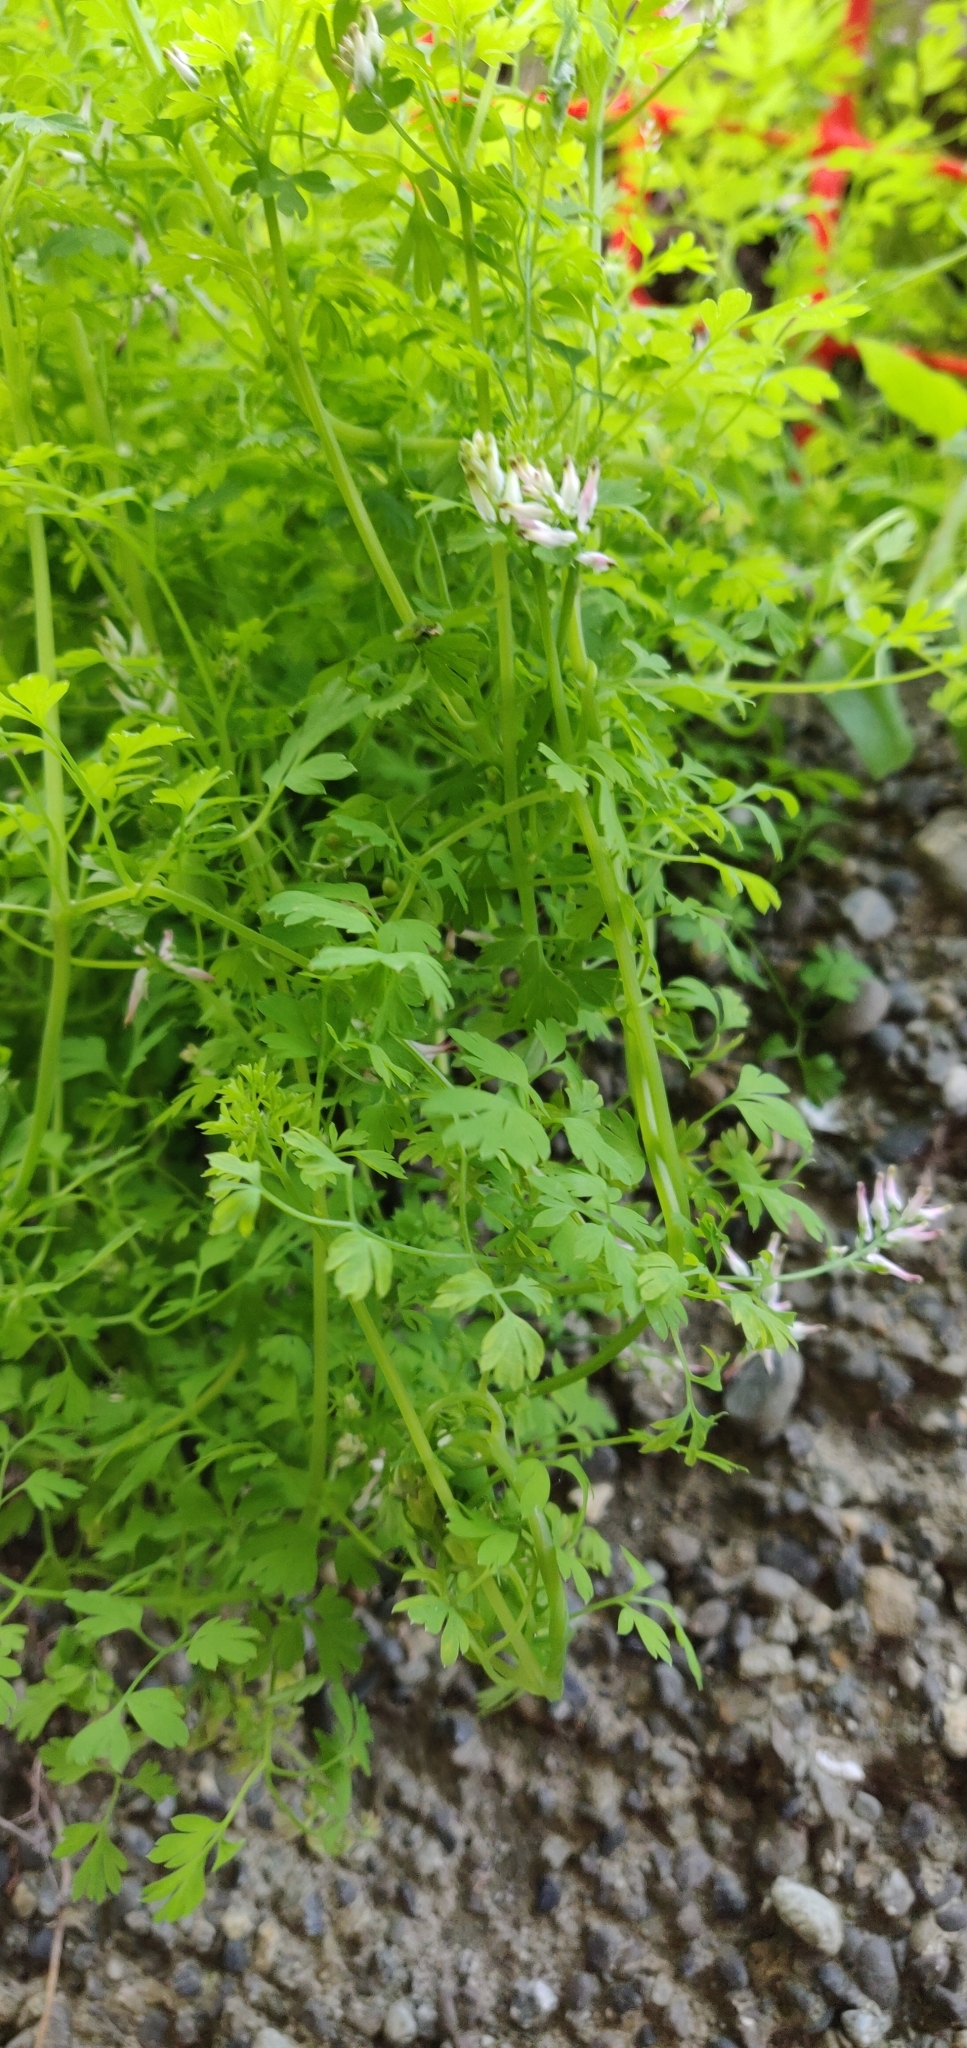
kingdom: Plantae
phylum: Tracheophyta
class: Magnoliopsida
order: Ranunculales
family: Papaveraceae
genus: Fumaria
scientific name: Fumaria muralis
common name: Common ramping-fumitory
